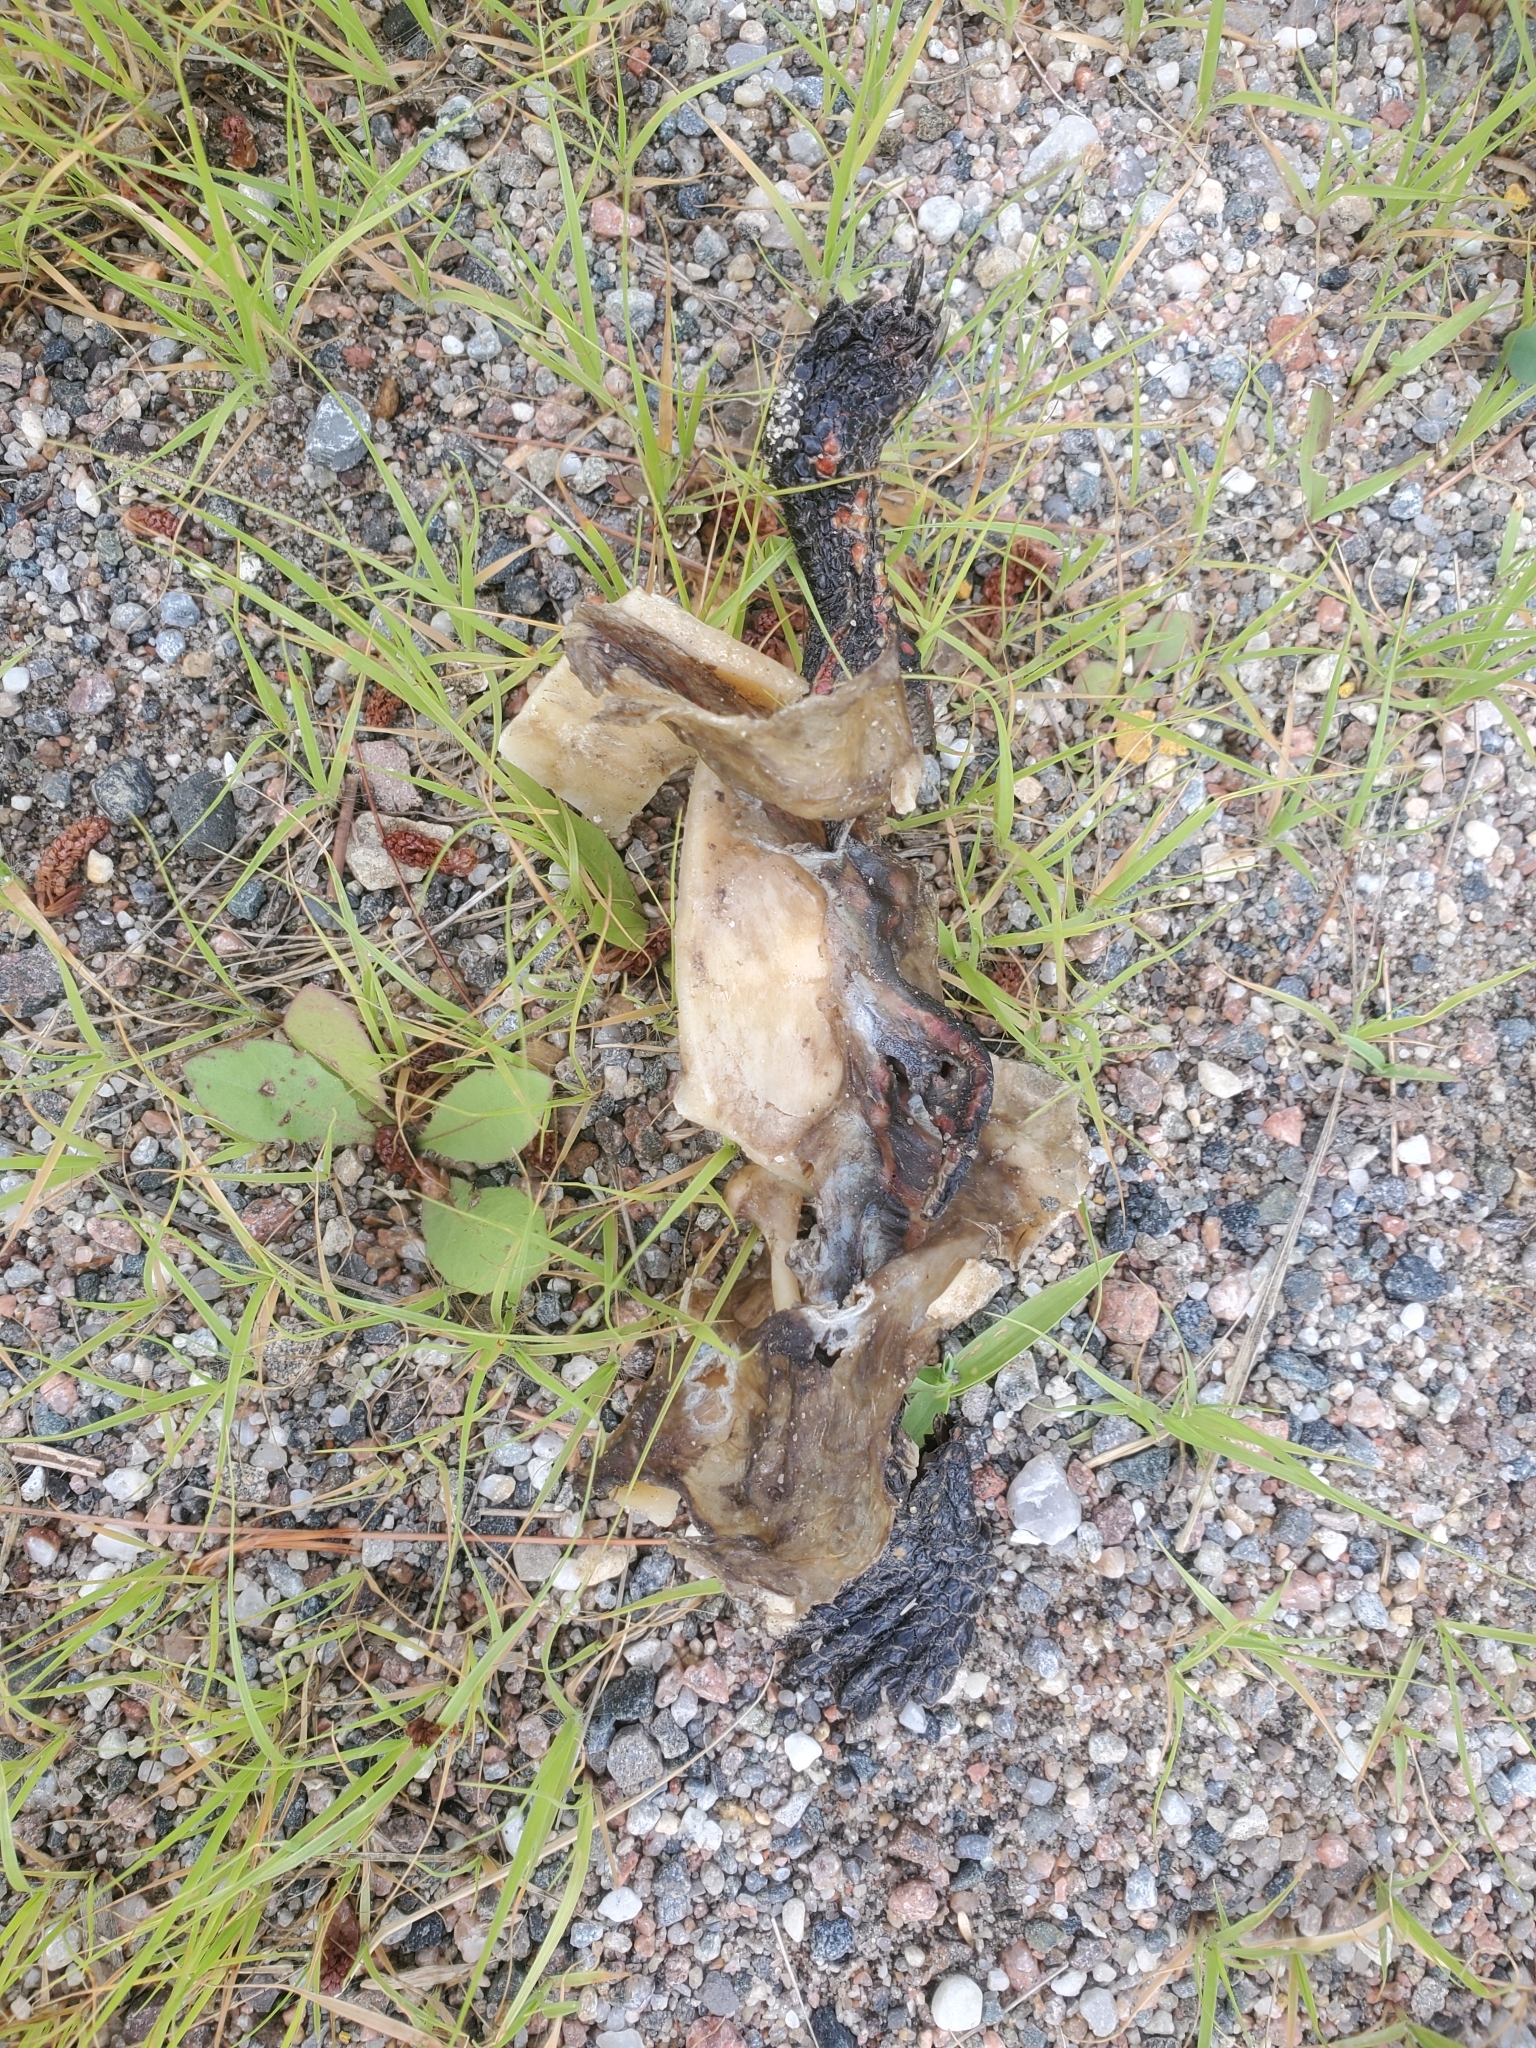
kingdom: Animalia
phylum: Chordata
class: Testudines
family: Emydidae
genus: Chrysemys
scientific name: Chrysemys picta
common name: Painted turtle
